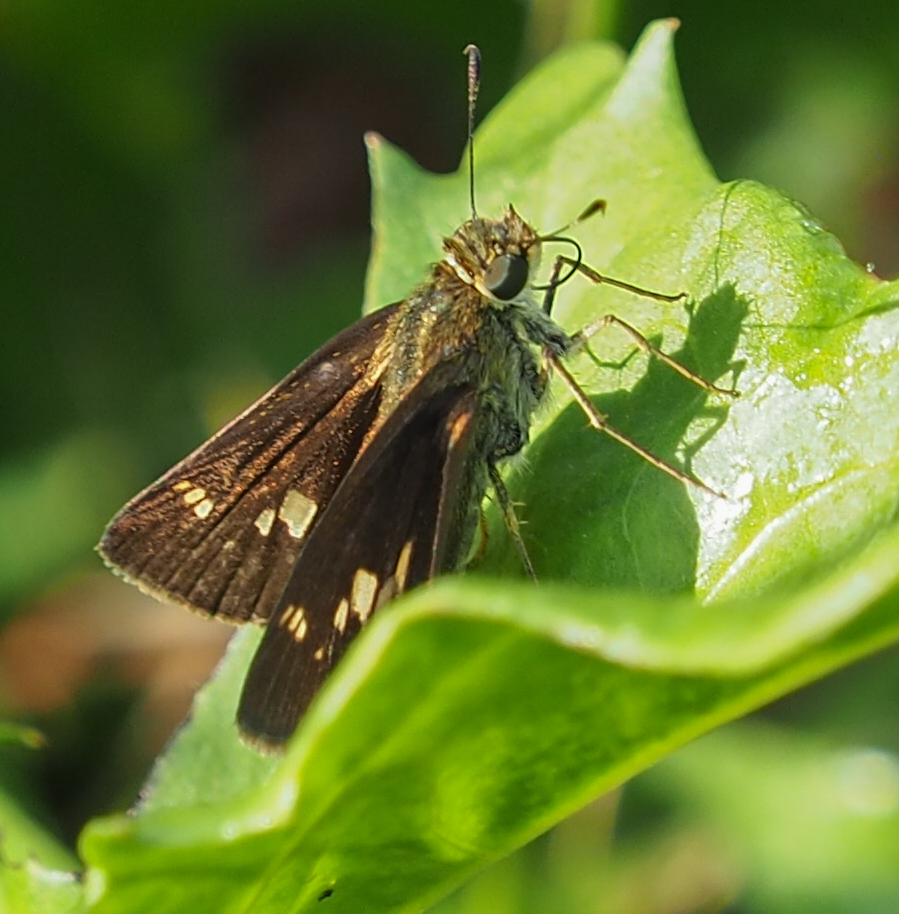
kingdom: Animalia
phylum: Arthropoda
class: Insecta
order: Lepidoptera
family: Hesperiidae
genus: Vernia
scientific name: Vernia verna
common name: Little glassywing
